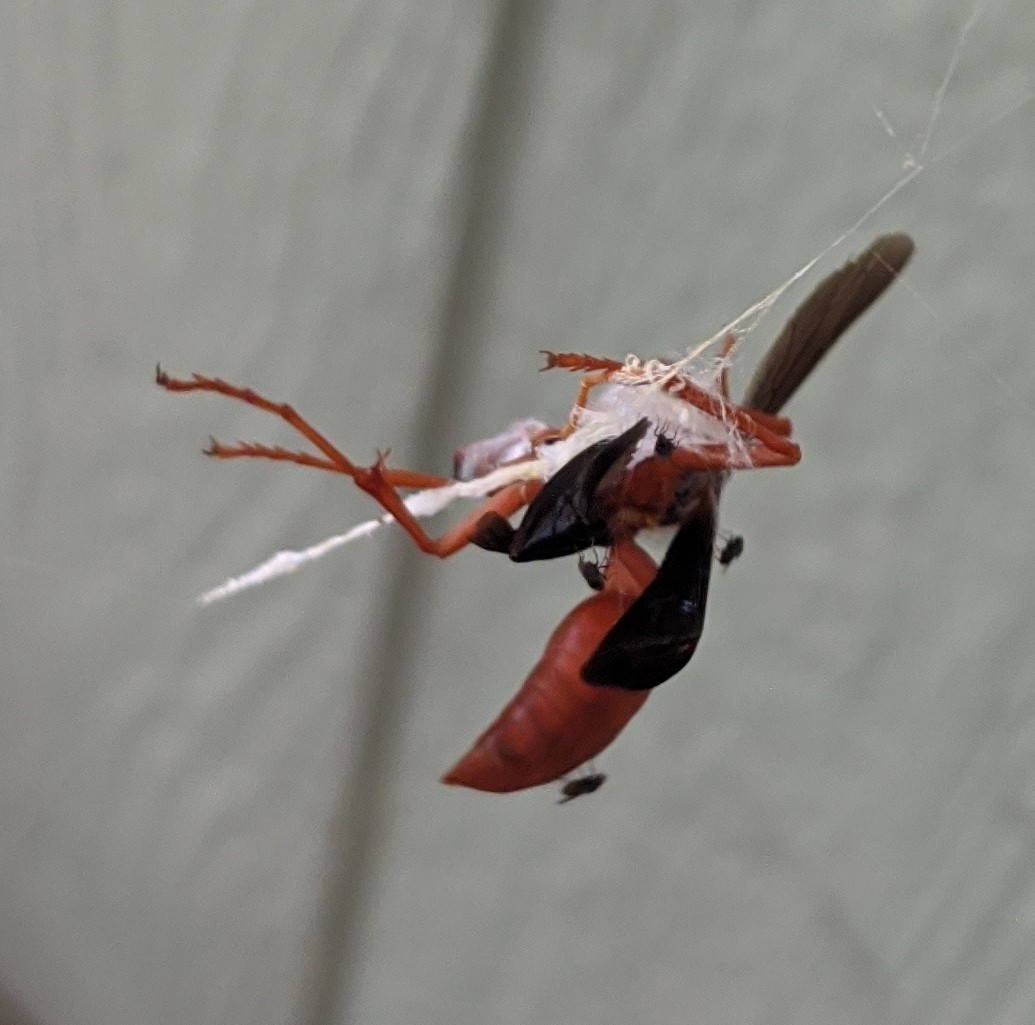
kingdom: Animalia
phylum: Arthropoda
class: Insecta
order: Hymenoptera
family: Vespidae
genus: Fuscopolistes
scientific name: Fuscopolistes
